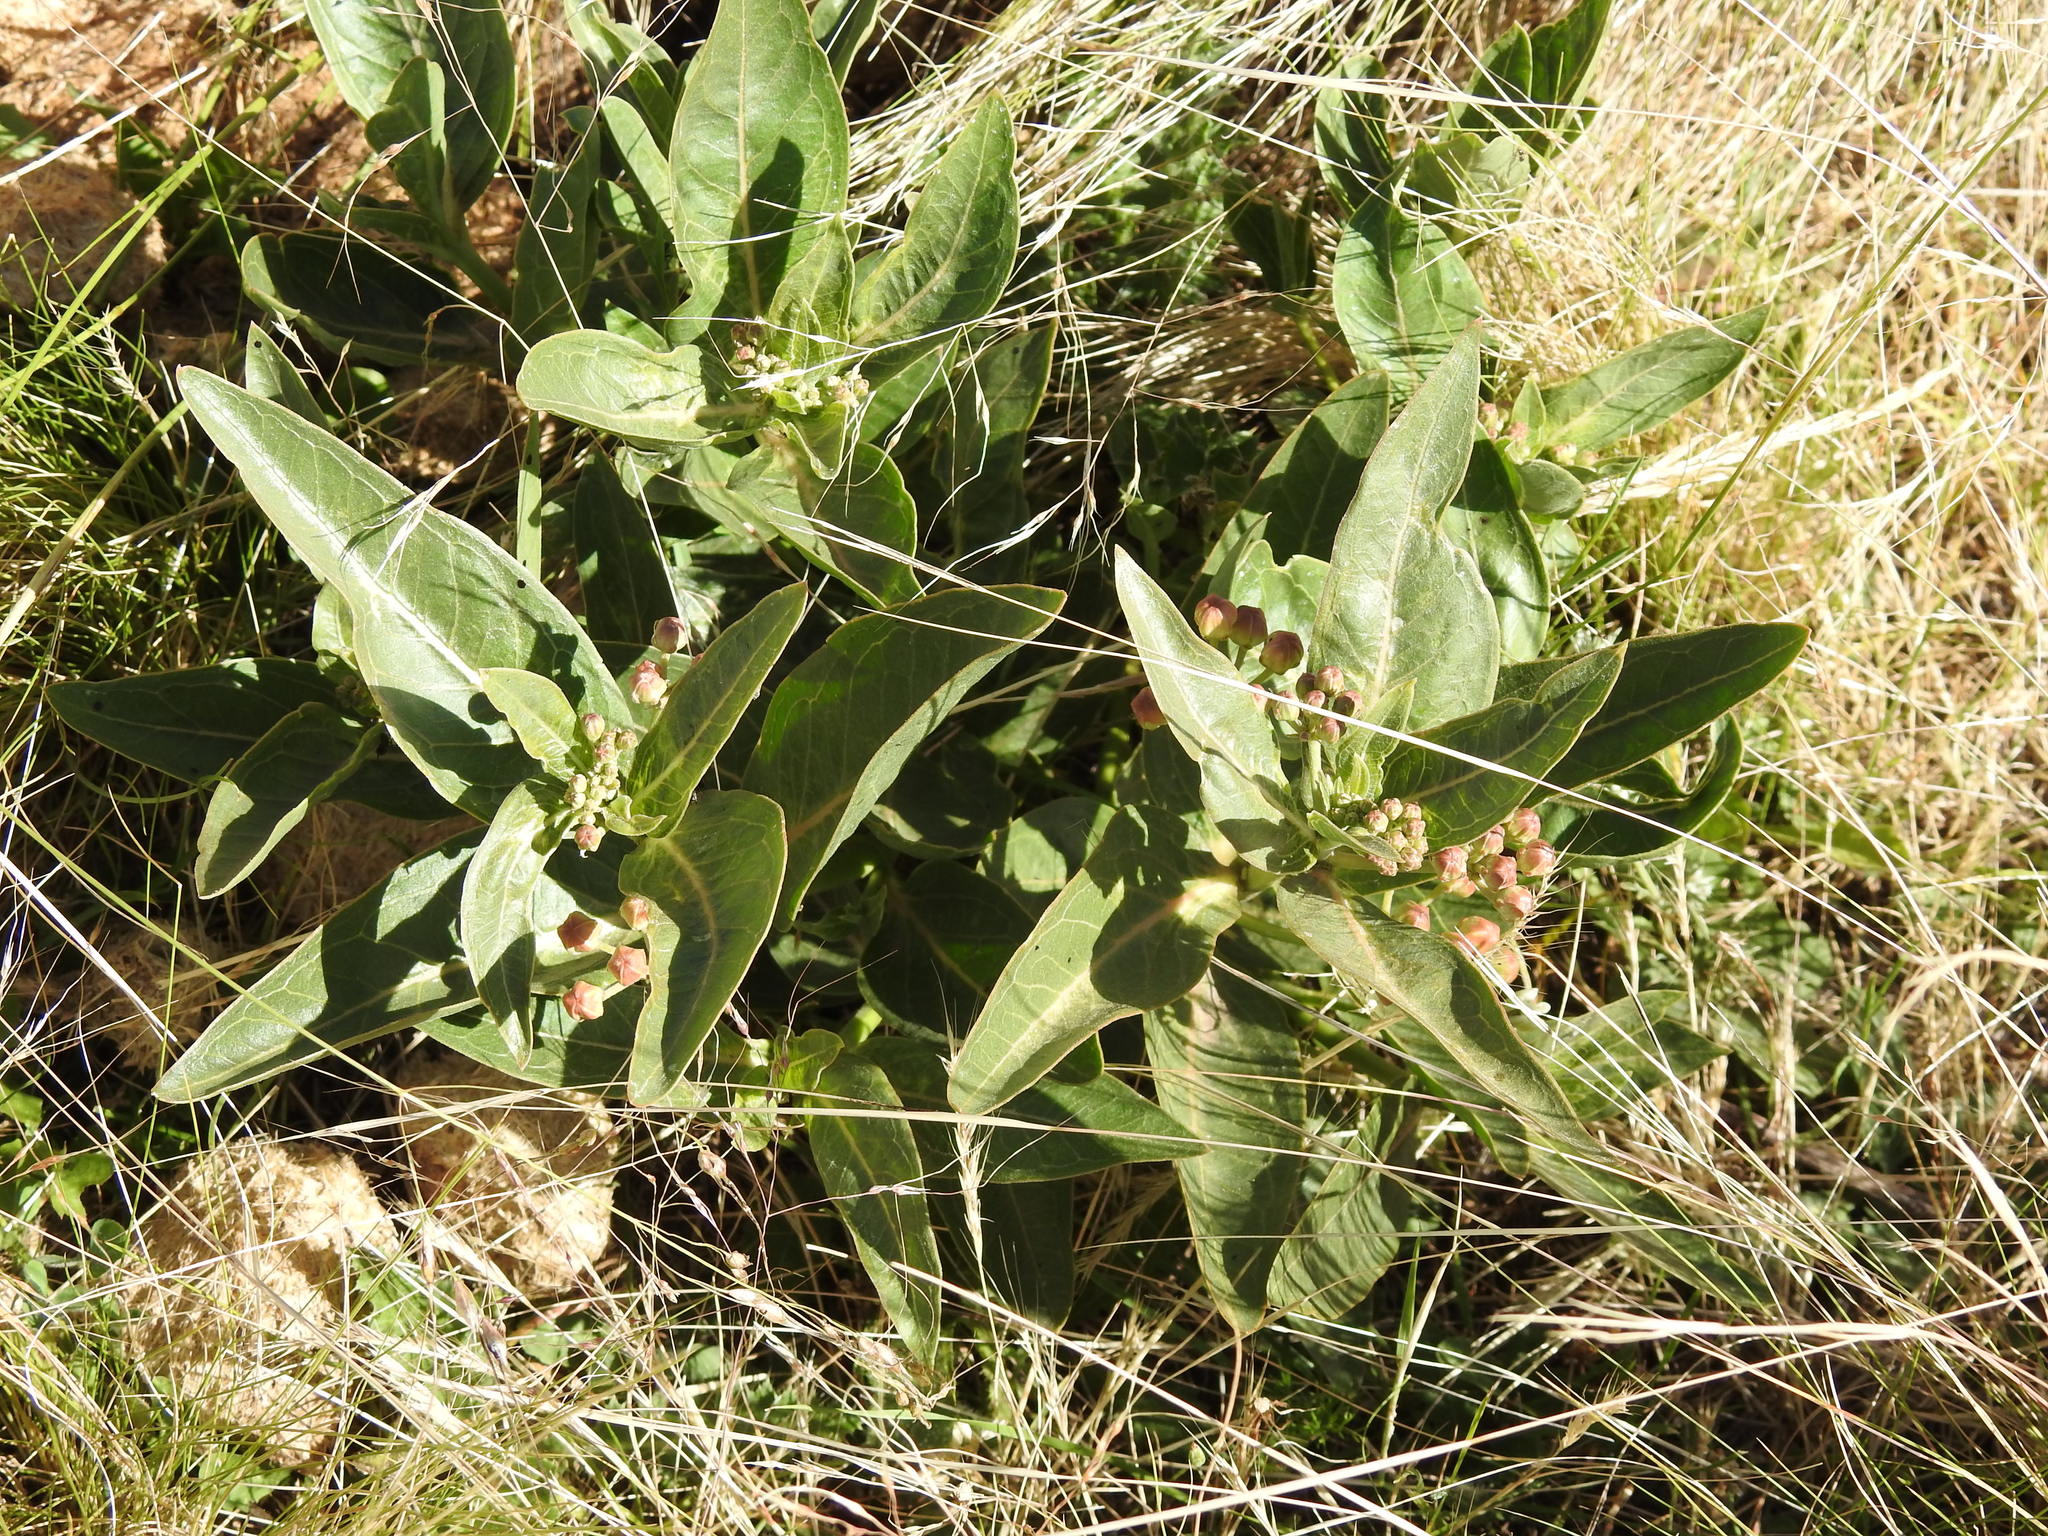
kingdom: Plantae
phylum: Tracheophyta
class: Magnoliopsida
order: Gentianales
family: Apocynaceae
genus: Asclepias
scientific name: Asclepias mellodora
